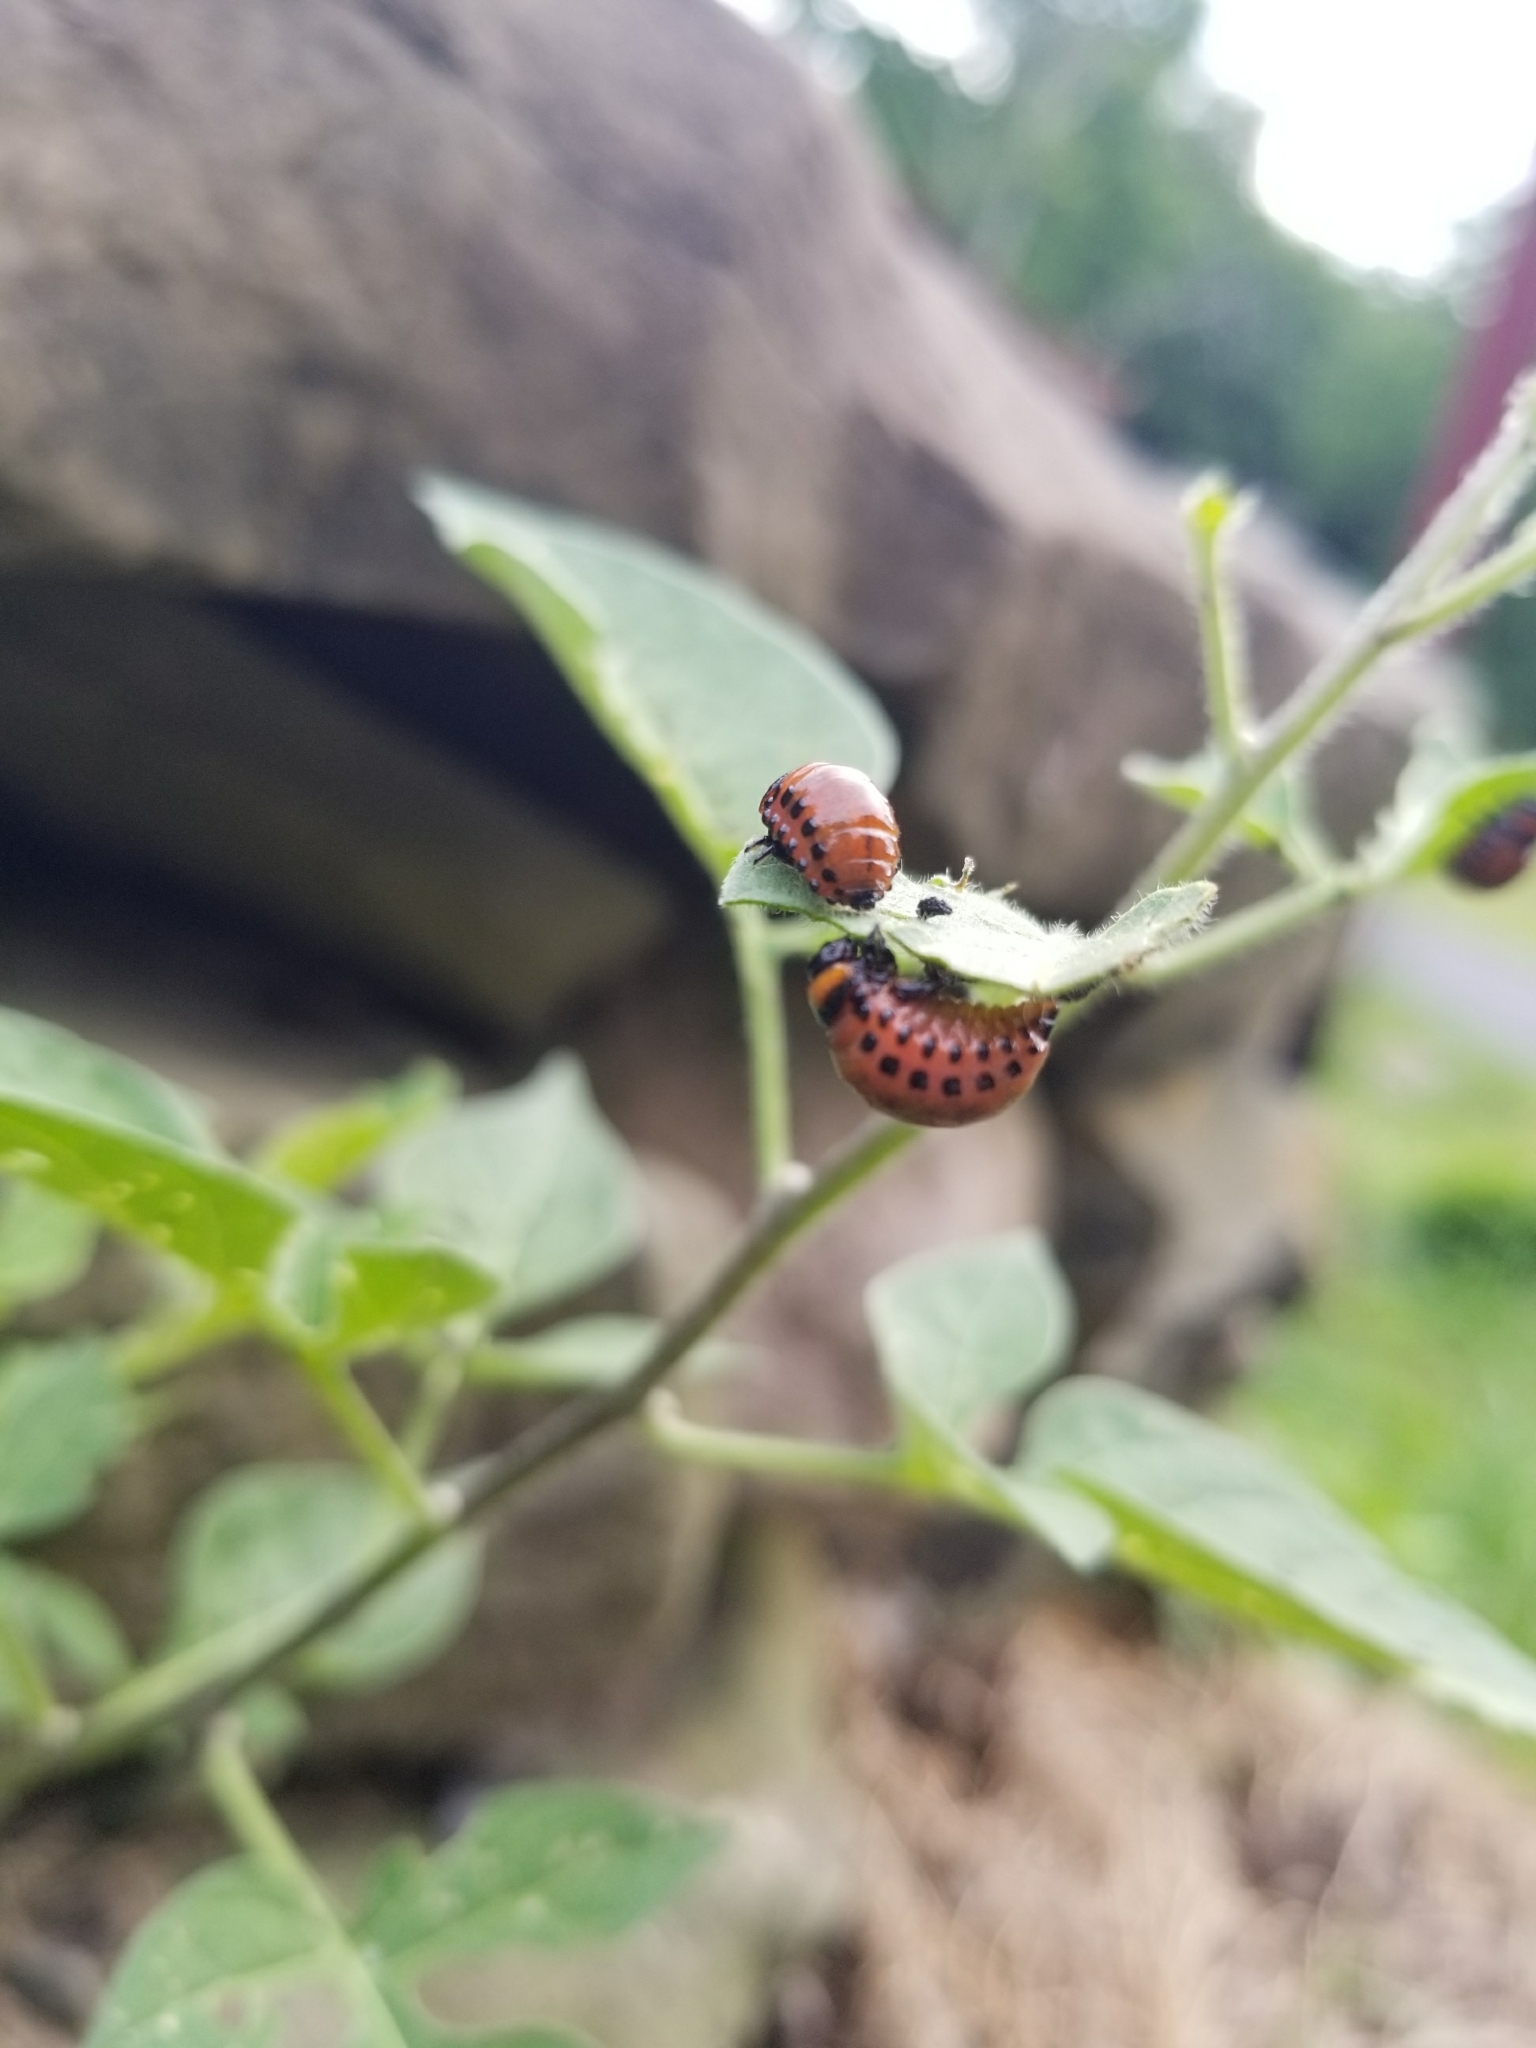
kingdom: Animalia
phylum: Arthropoda
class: Insecta
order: Coleoptera
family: Chrysomelidae
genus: Leptinotarsa
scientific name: Leptinotarsa decemlineata
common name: Colorado potato beetle
